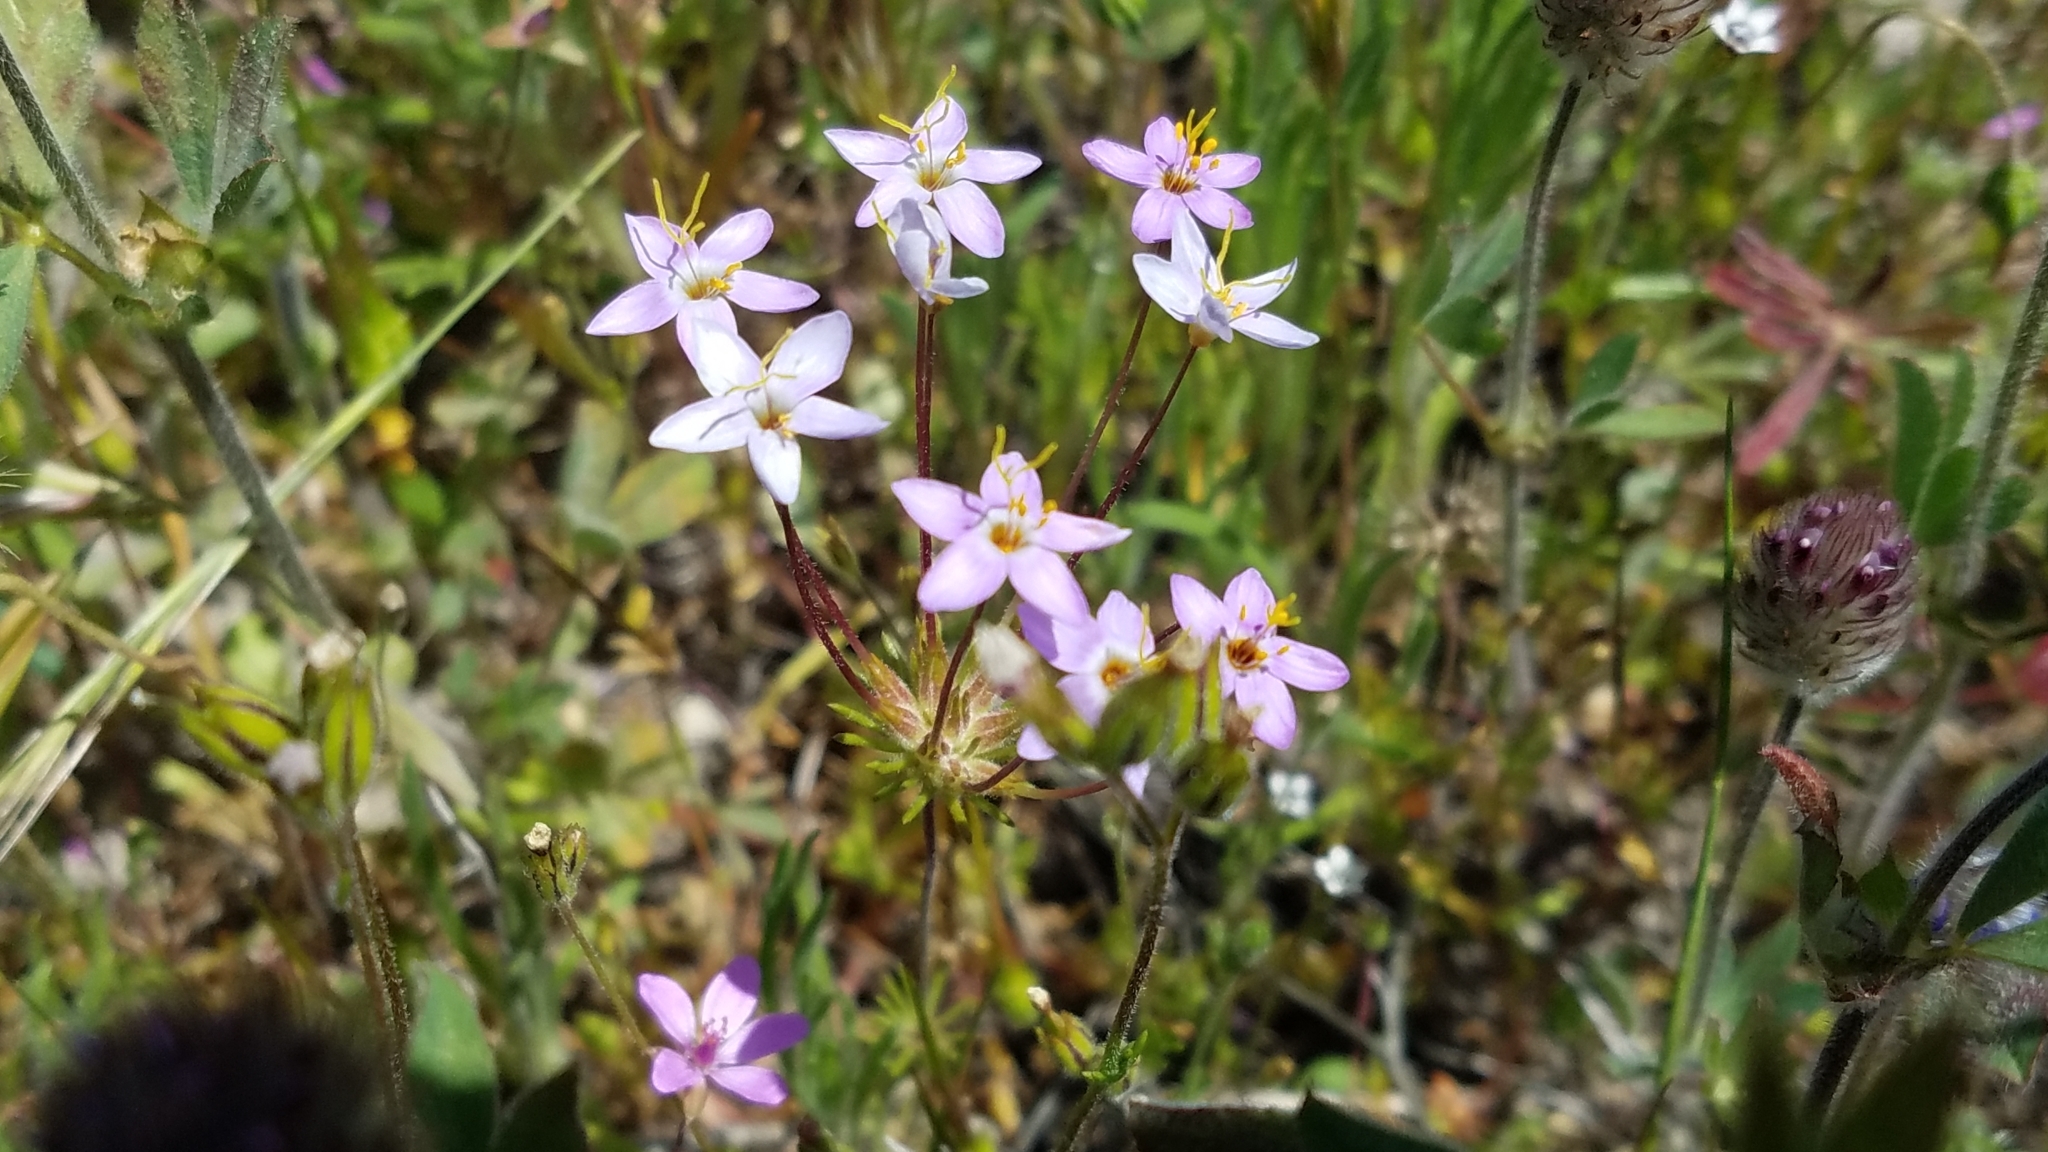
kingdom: Plantae
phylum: Tracheophyta
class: Magnoliopsida
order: Ericales
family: Polemoniaceae
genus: Leptosiphon
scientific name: Leptosiphon parviflorus
